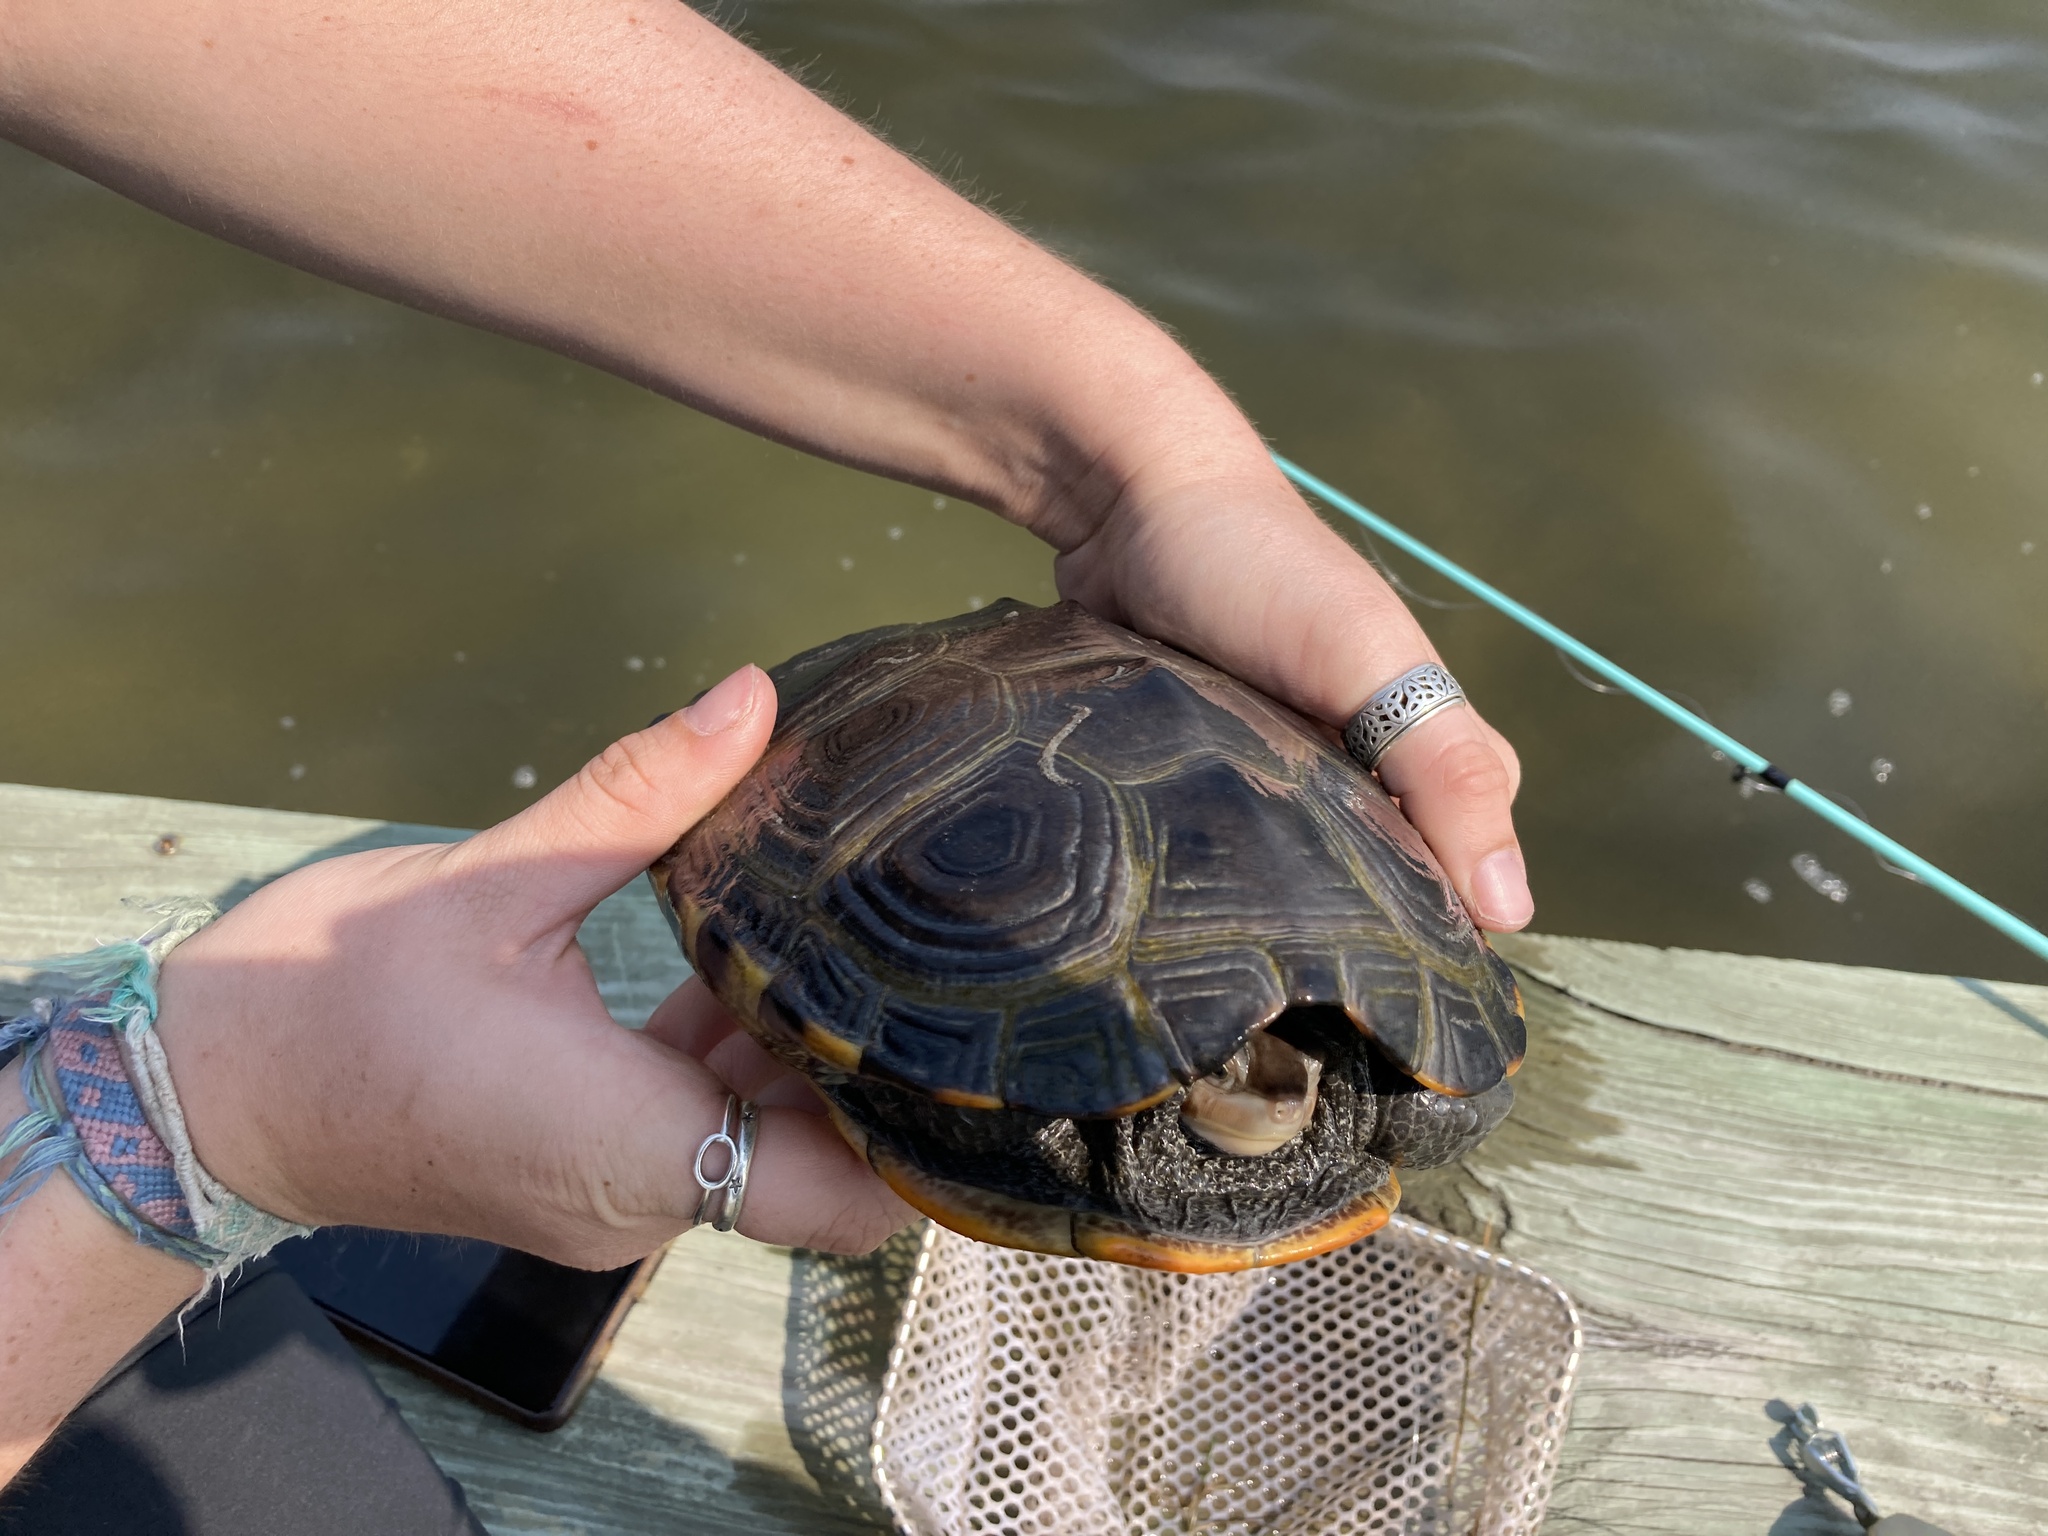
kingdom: Animalia
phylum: Chordata
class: Testudines
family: Emydidae
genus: Malaclemys
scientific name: Malaclemys terrapin
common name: Diamondback terrapin
